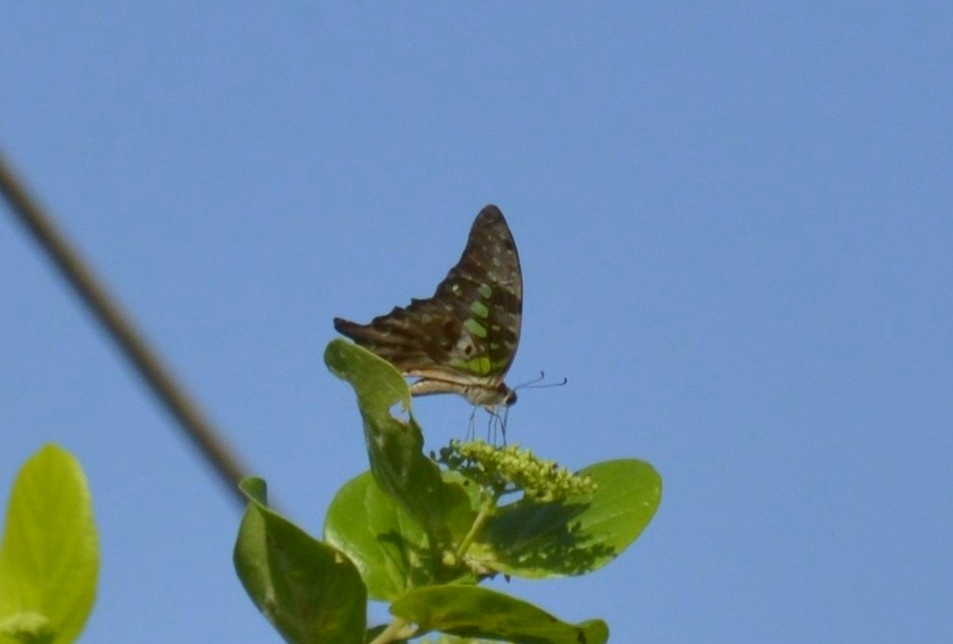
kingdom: Animalia
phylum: Arthropoda
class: Insecta
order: Lepidoptera
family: Papilionidae
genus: Graphium
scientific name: Graphium agamemnon
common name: Tailed jay
